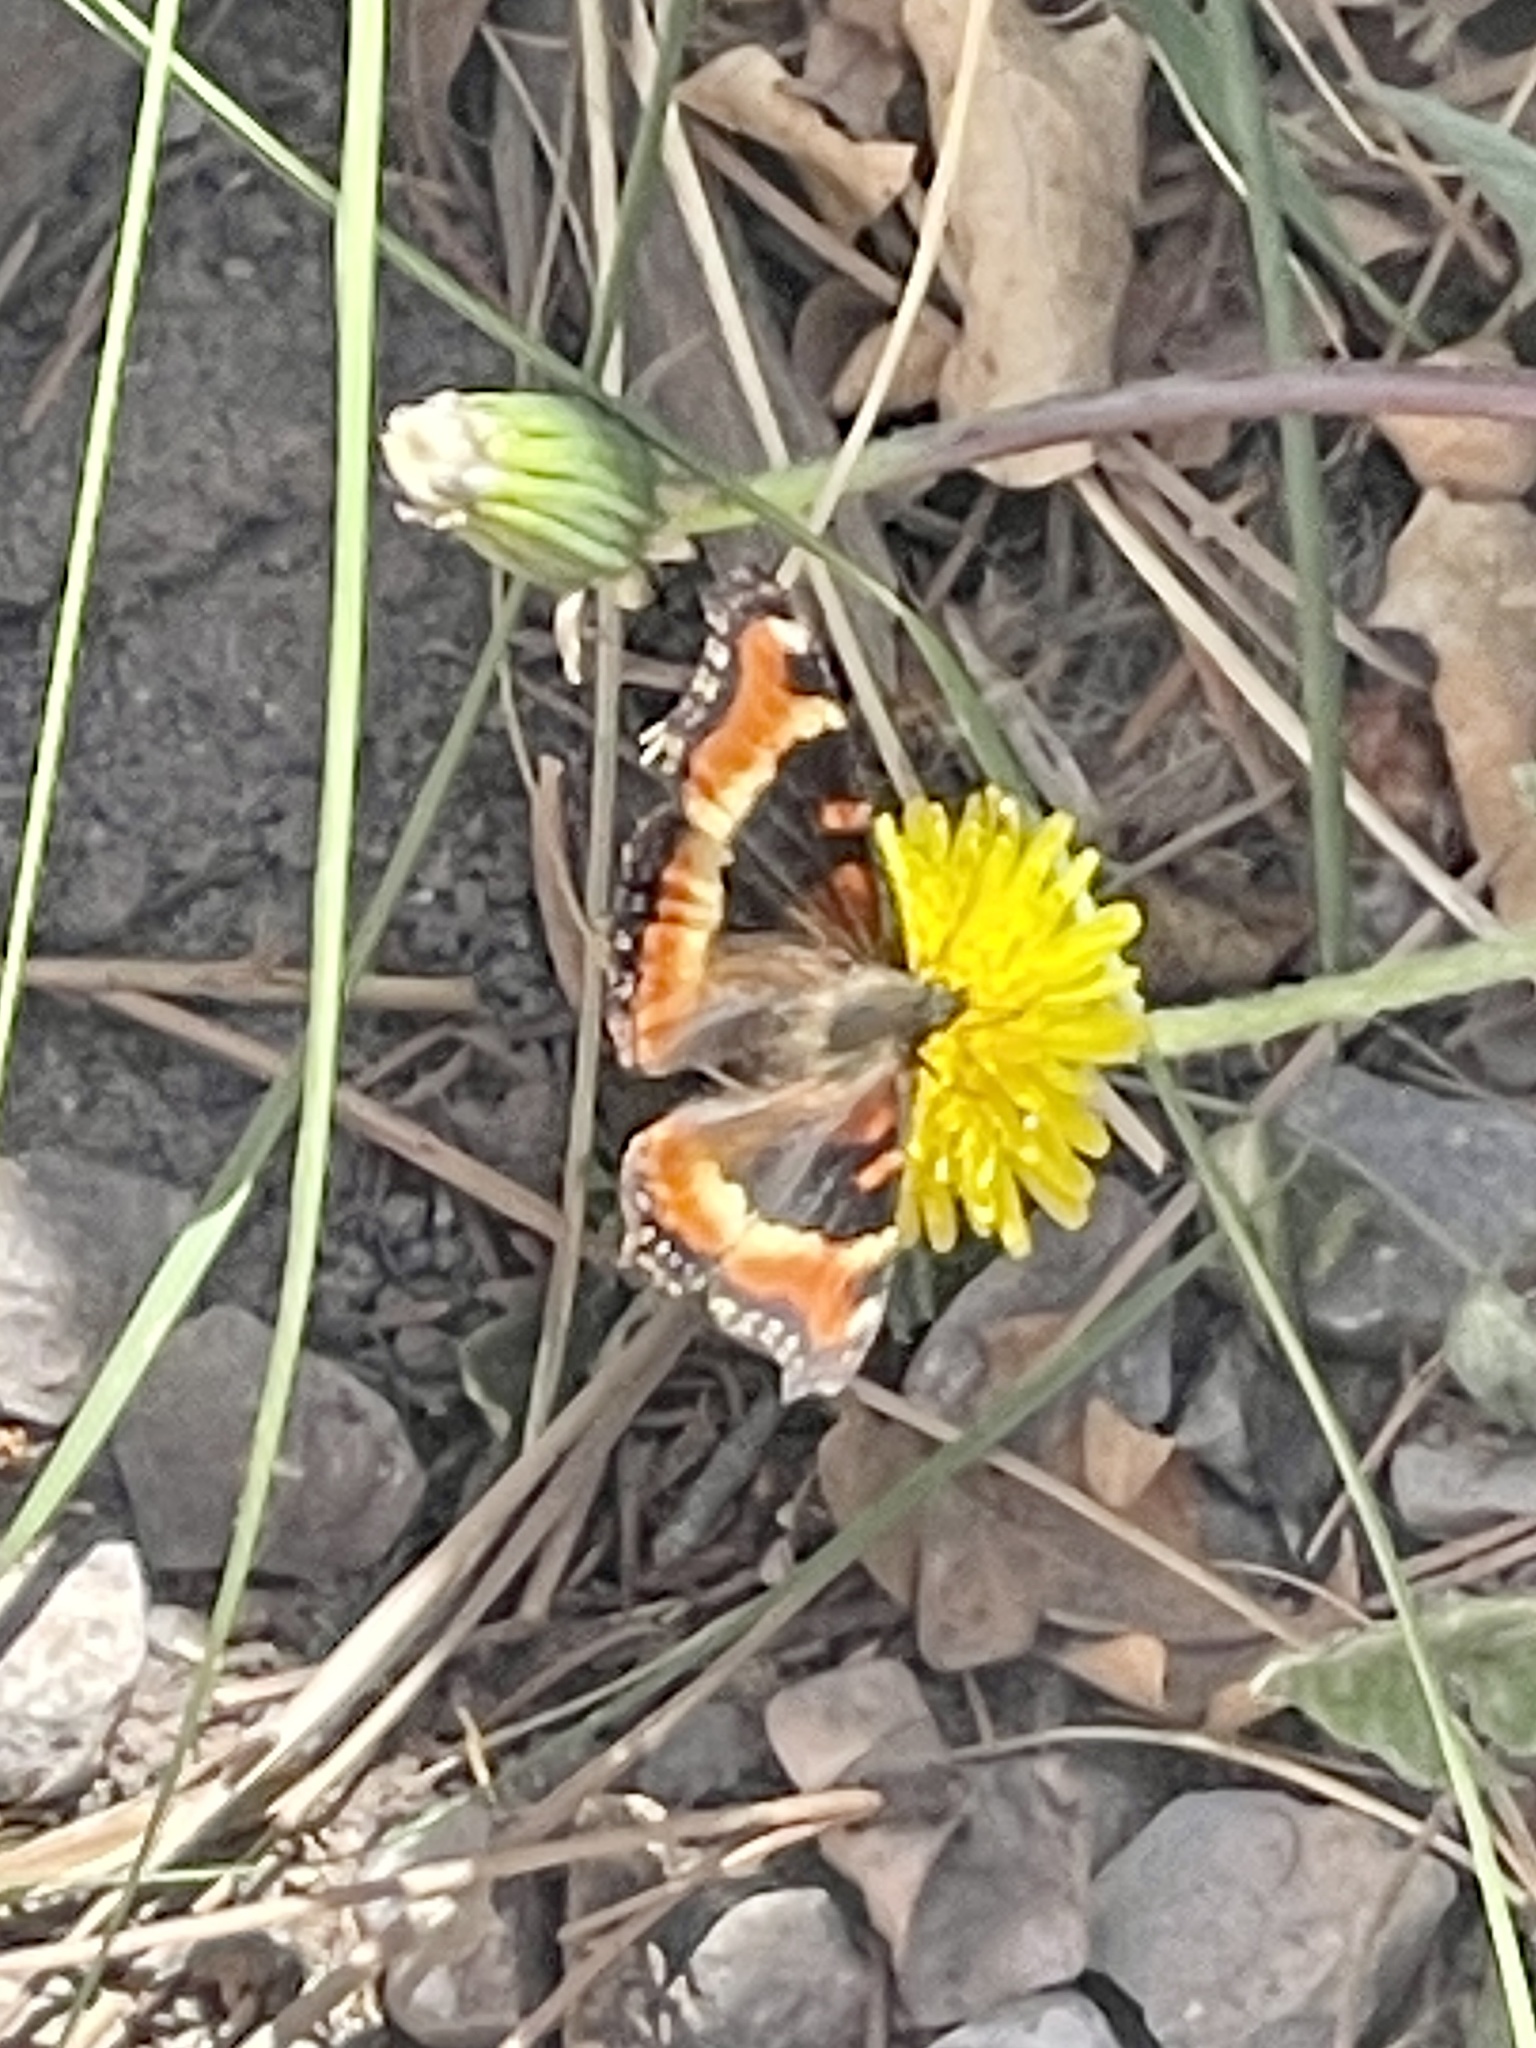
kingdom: Animalia
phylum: Arthropoda
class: Insecta
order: Lepidoptera
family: Nymphalidae
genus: Aglais
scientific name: Aglais milberti
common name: Milbert's tortoiseshell
